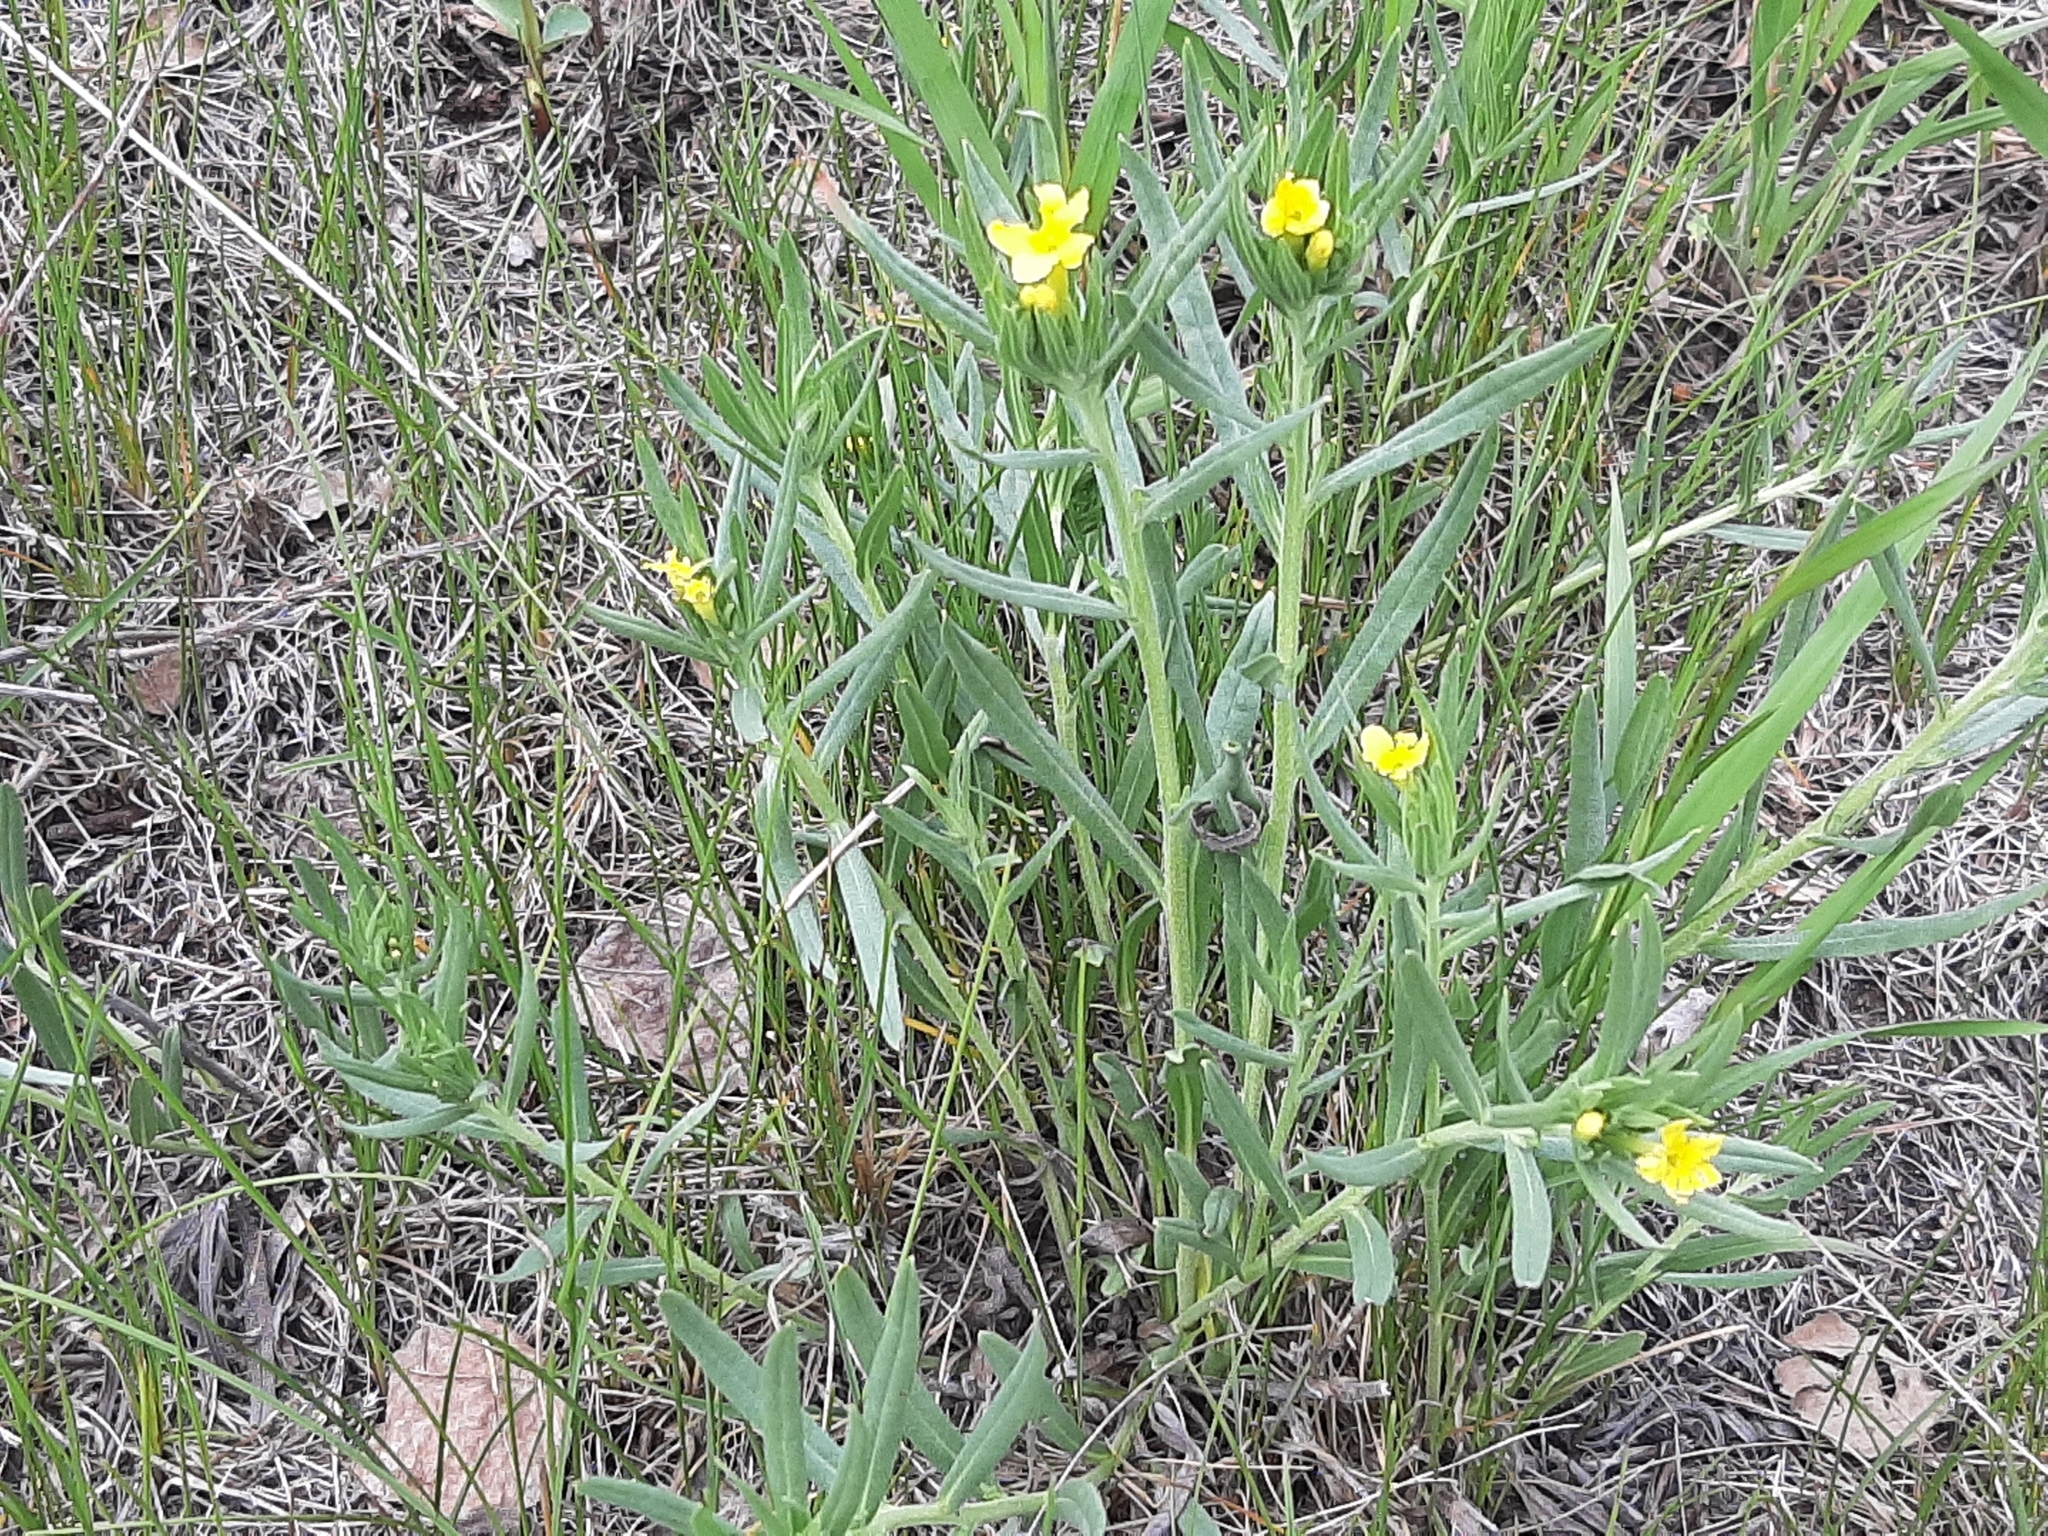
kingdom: Plantae
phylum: Tracheophyta
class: Magnoliopsida
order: Boraginales
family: Boraginaceae
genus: Lithospermum
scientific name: Lithospermum incisum
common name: Fringed gromwell
